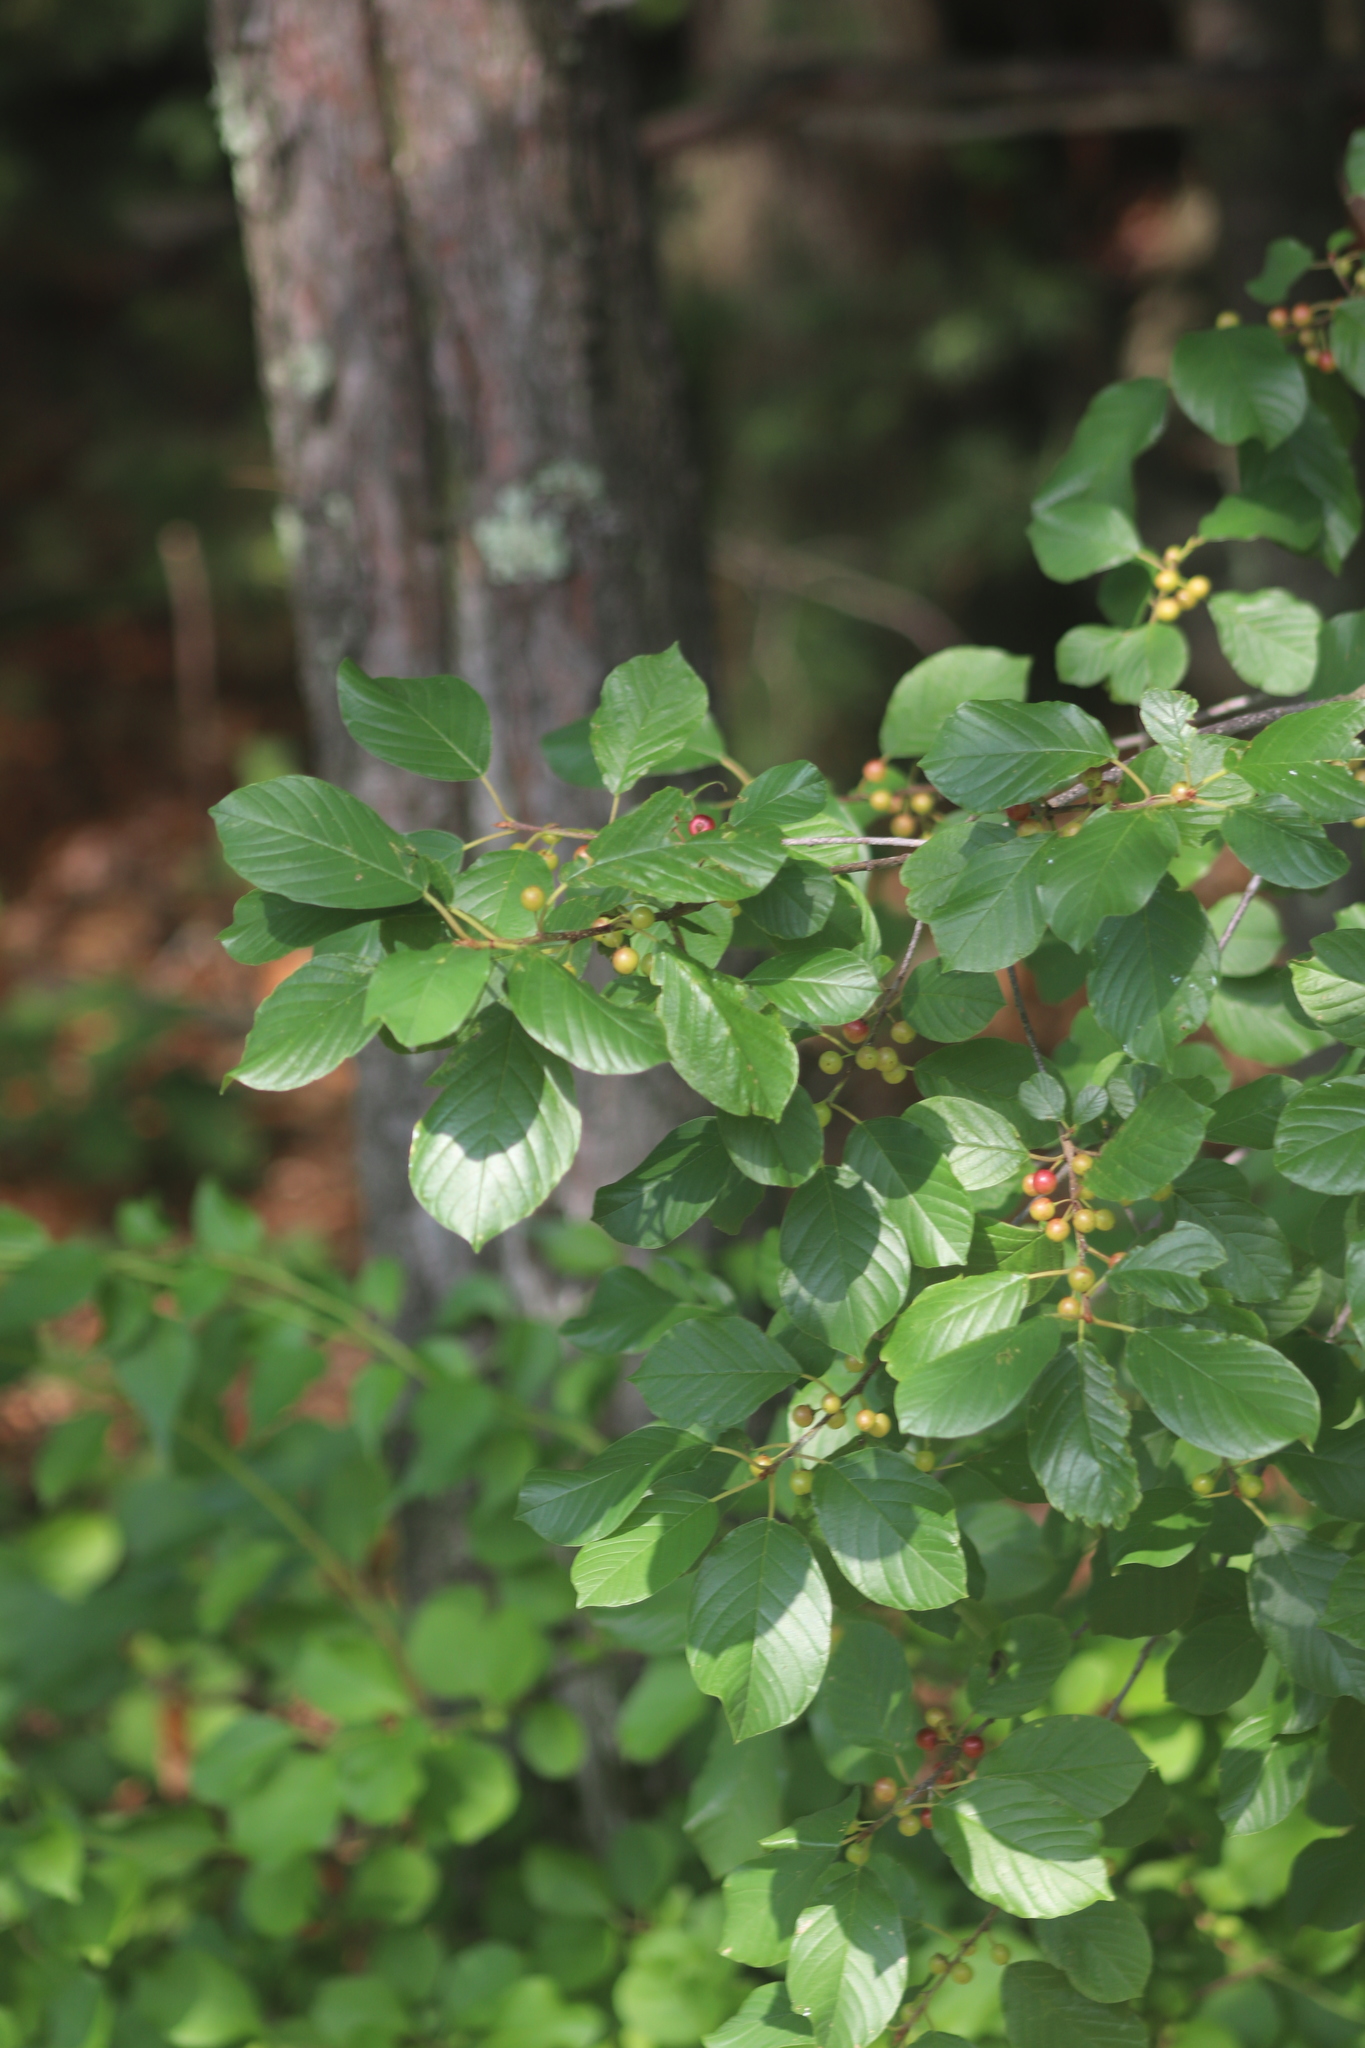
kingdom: Plantae
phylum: Tracheophyta
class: Magnoliopsida
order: Rosales
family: Rhamnaceae
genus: Frangula
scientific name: Frangula alnus
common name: Alder buckthorn
